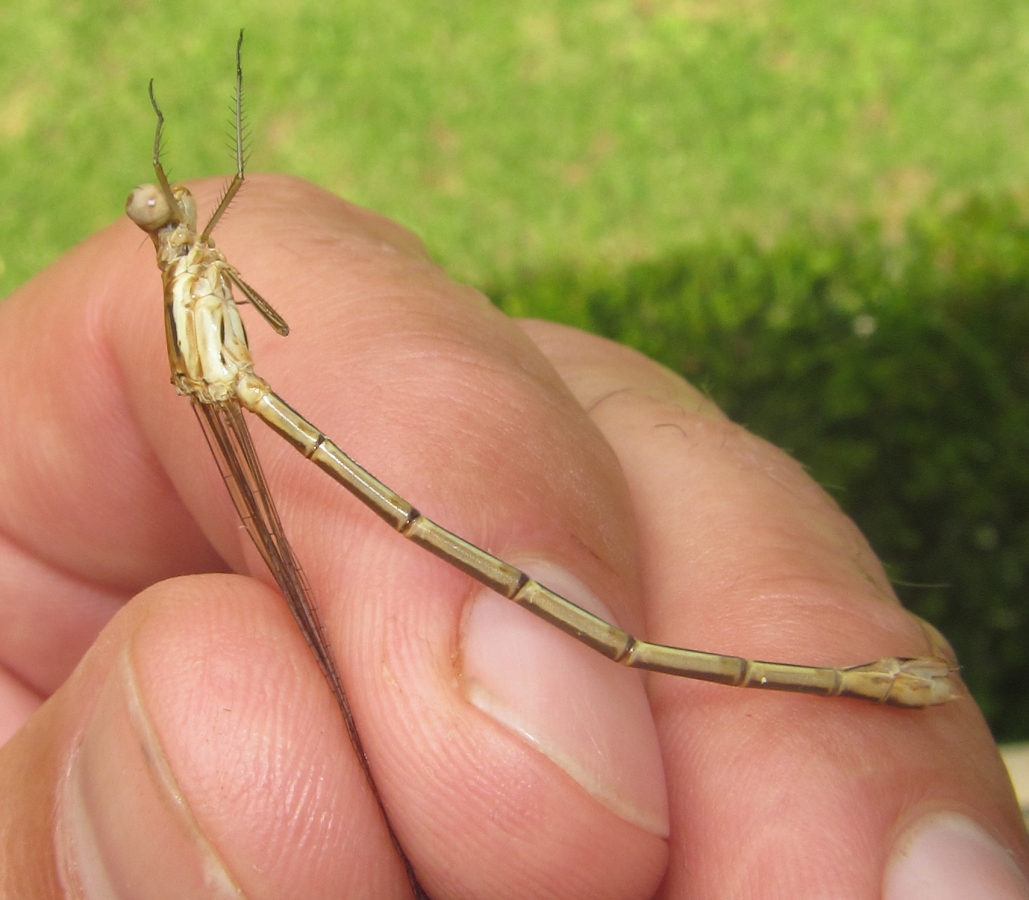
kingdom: Animalia
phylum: Arthropoda
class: Insecta
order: Odonata
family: Lestidae
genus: Lestes
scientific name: Lestes plagiatus
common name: Highland spreadwing
